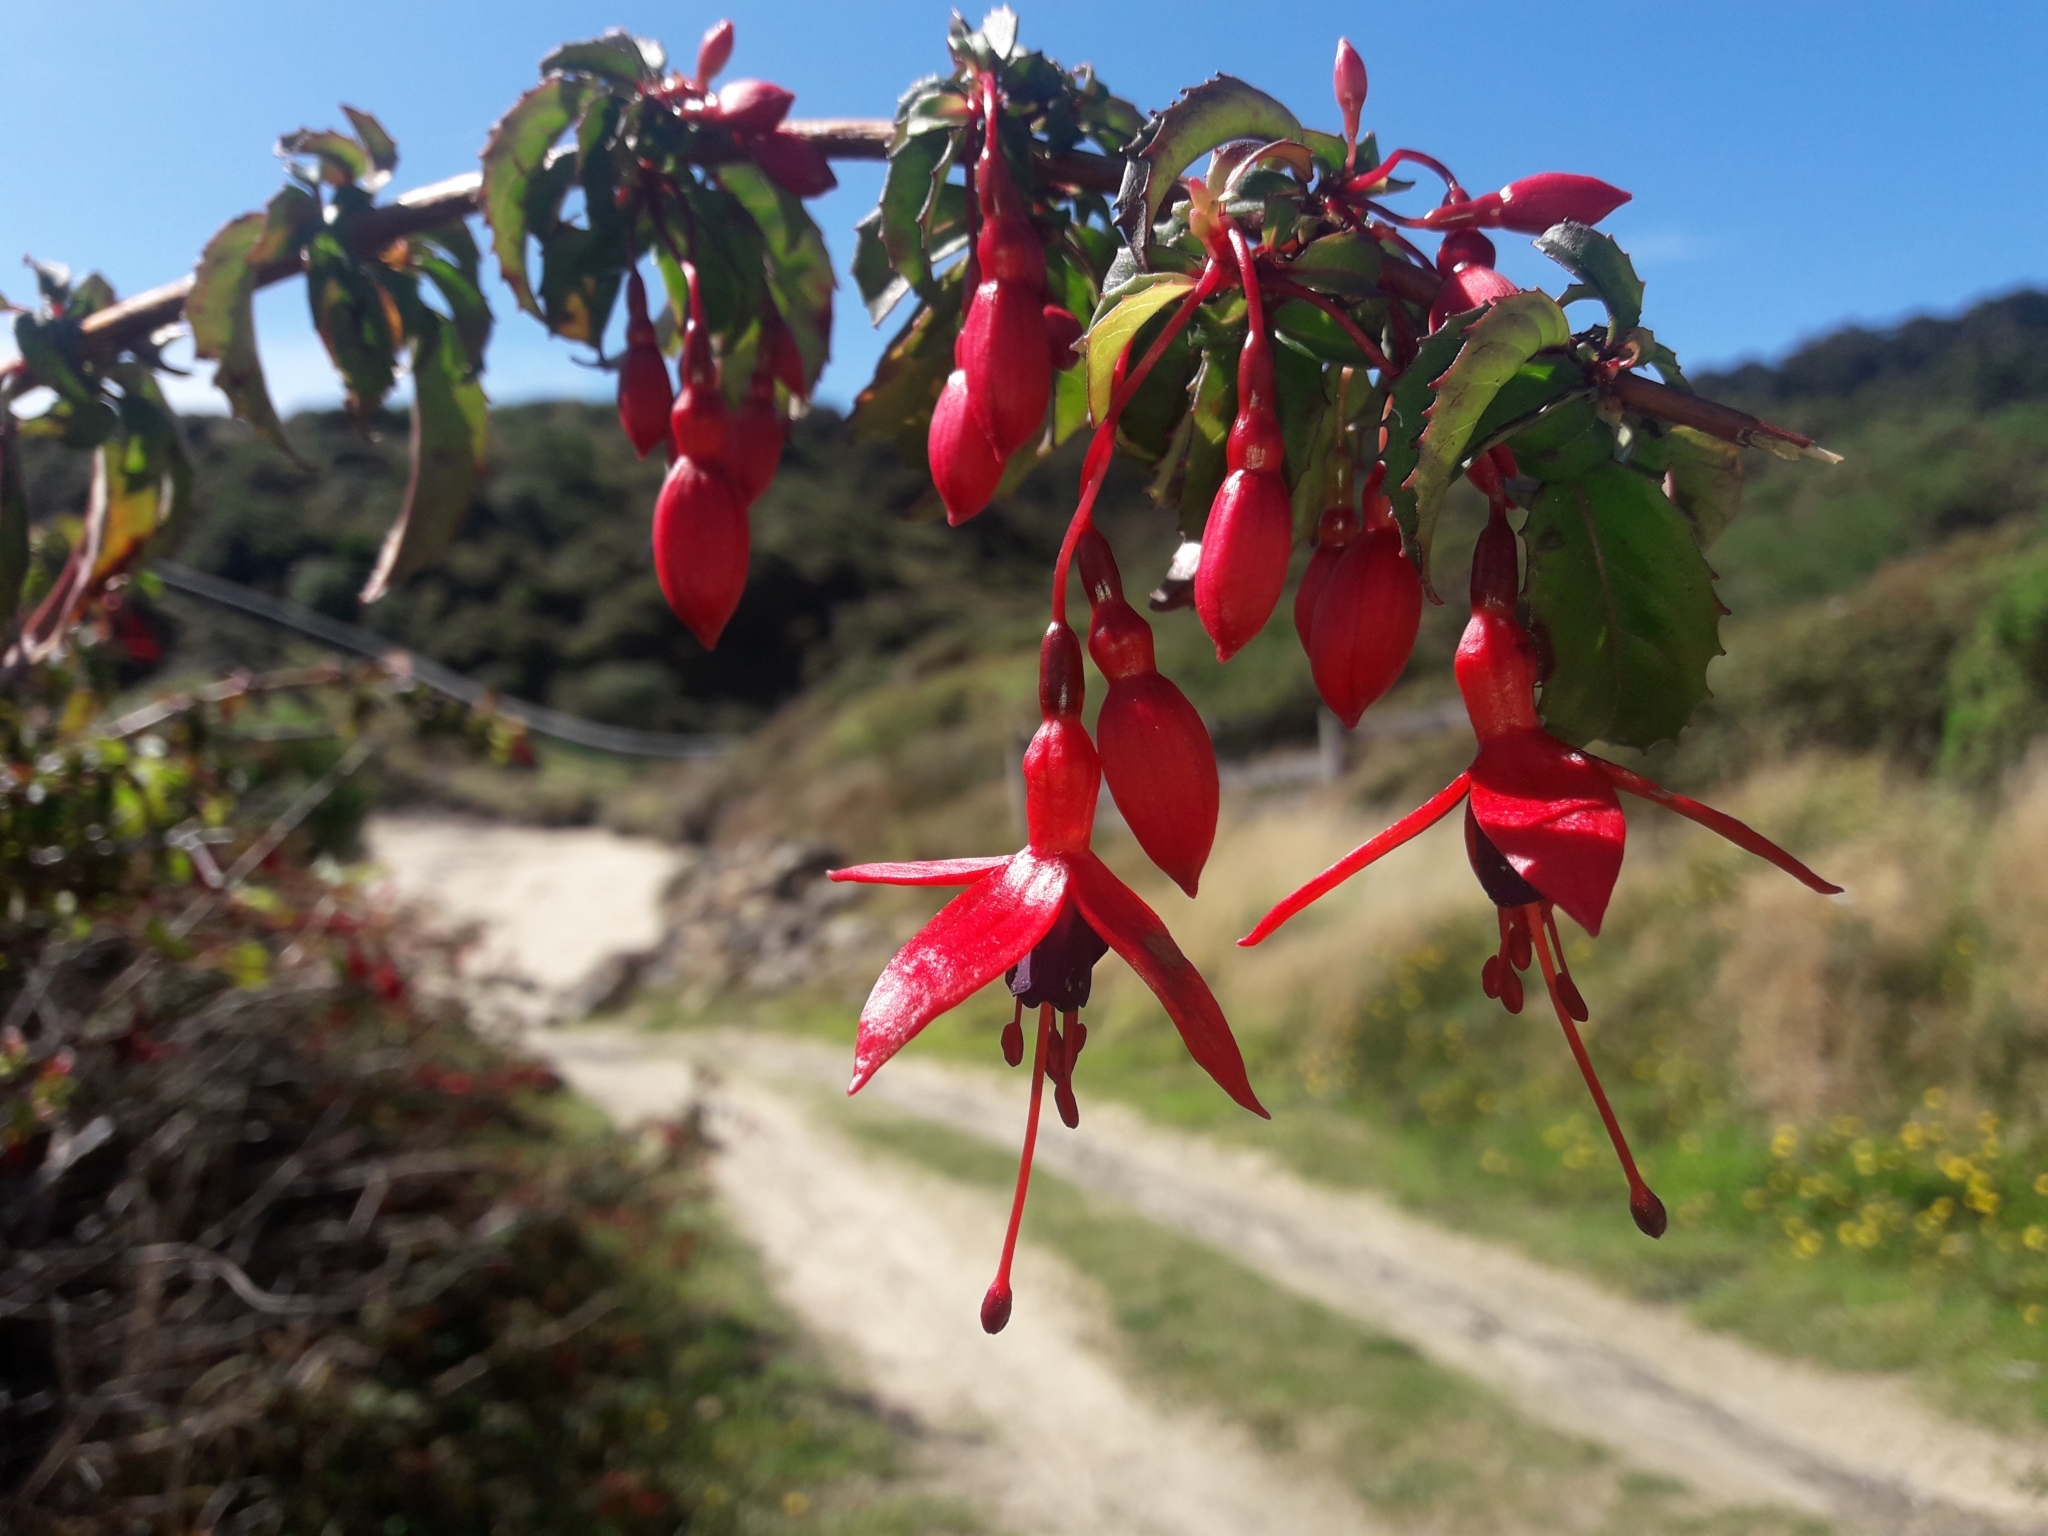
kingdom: Plantae
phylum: Tracheophyta
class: Magnoliopsida
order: Myrtales
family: Onagraceae
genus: Fuchsia
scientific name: Fuchsia magellanica
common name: Hardy fuchsia
